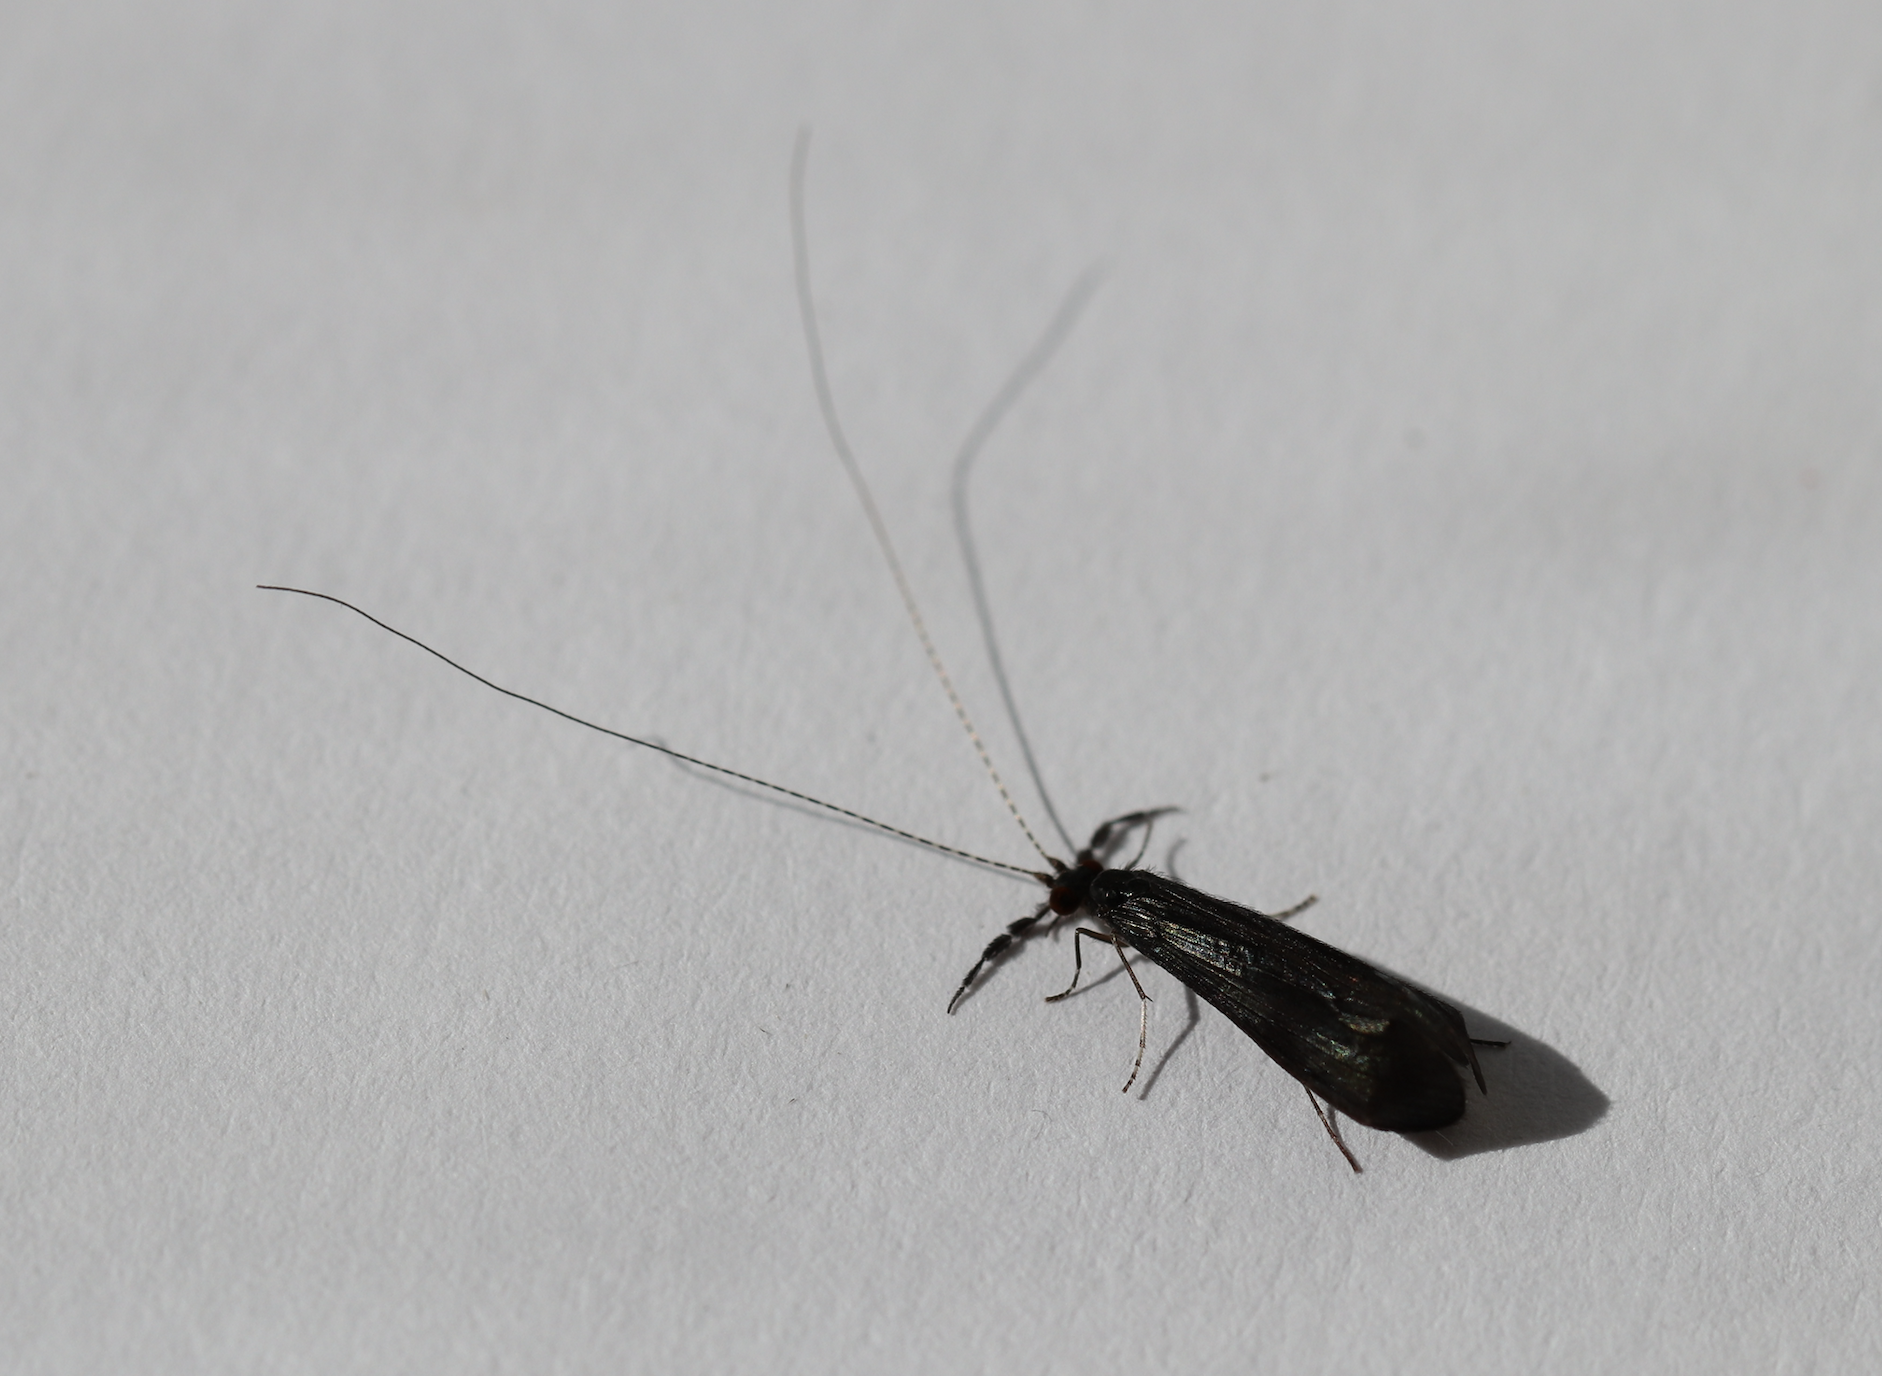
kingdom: Animalia
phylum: Arthropoda
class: Insecta
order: Trichoptera
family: Leptoceridae
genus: Mystacides
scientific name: Mystacides azureus
